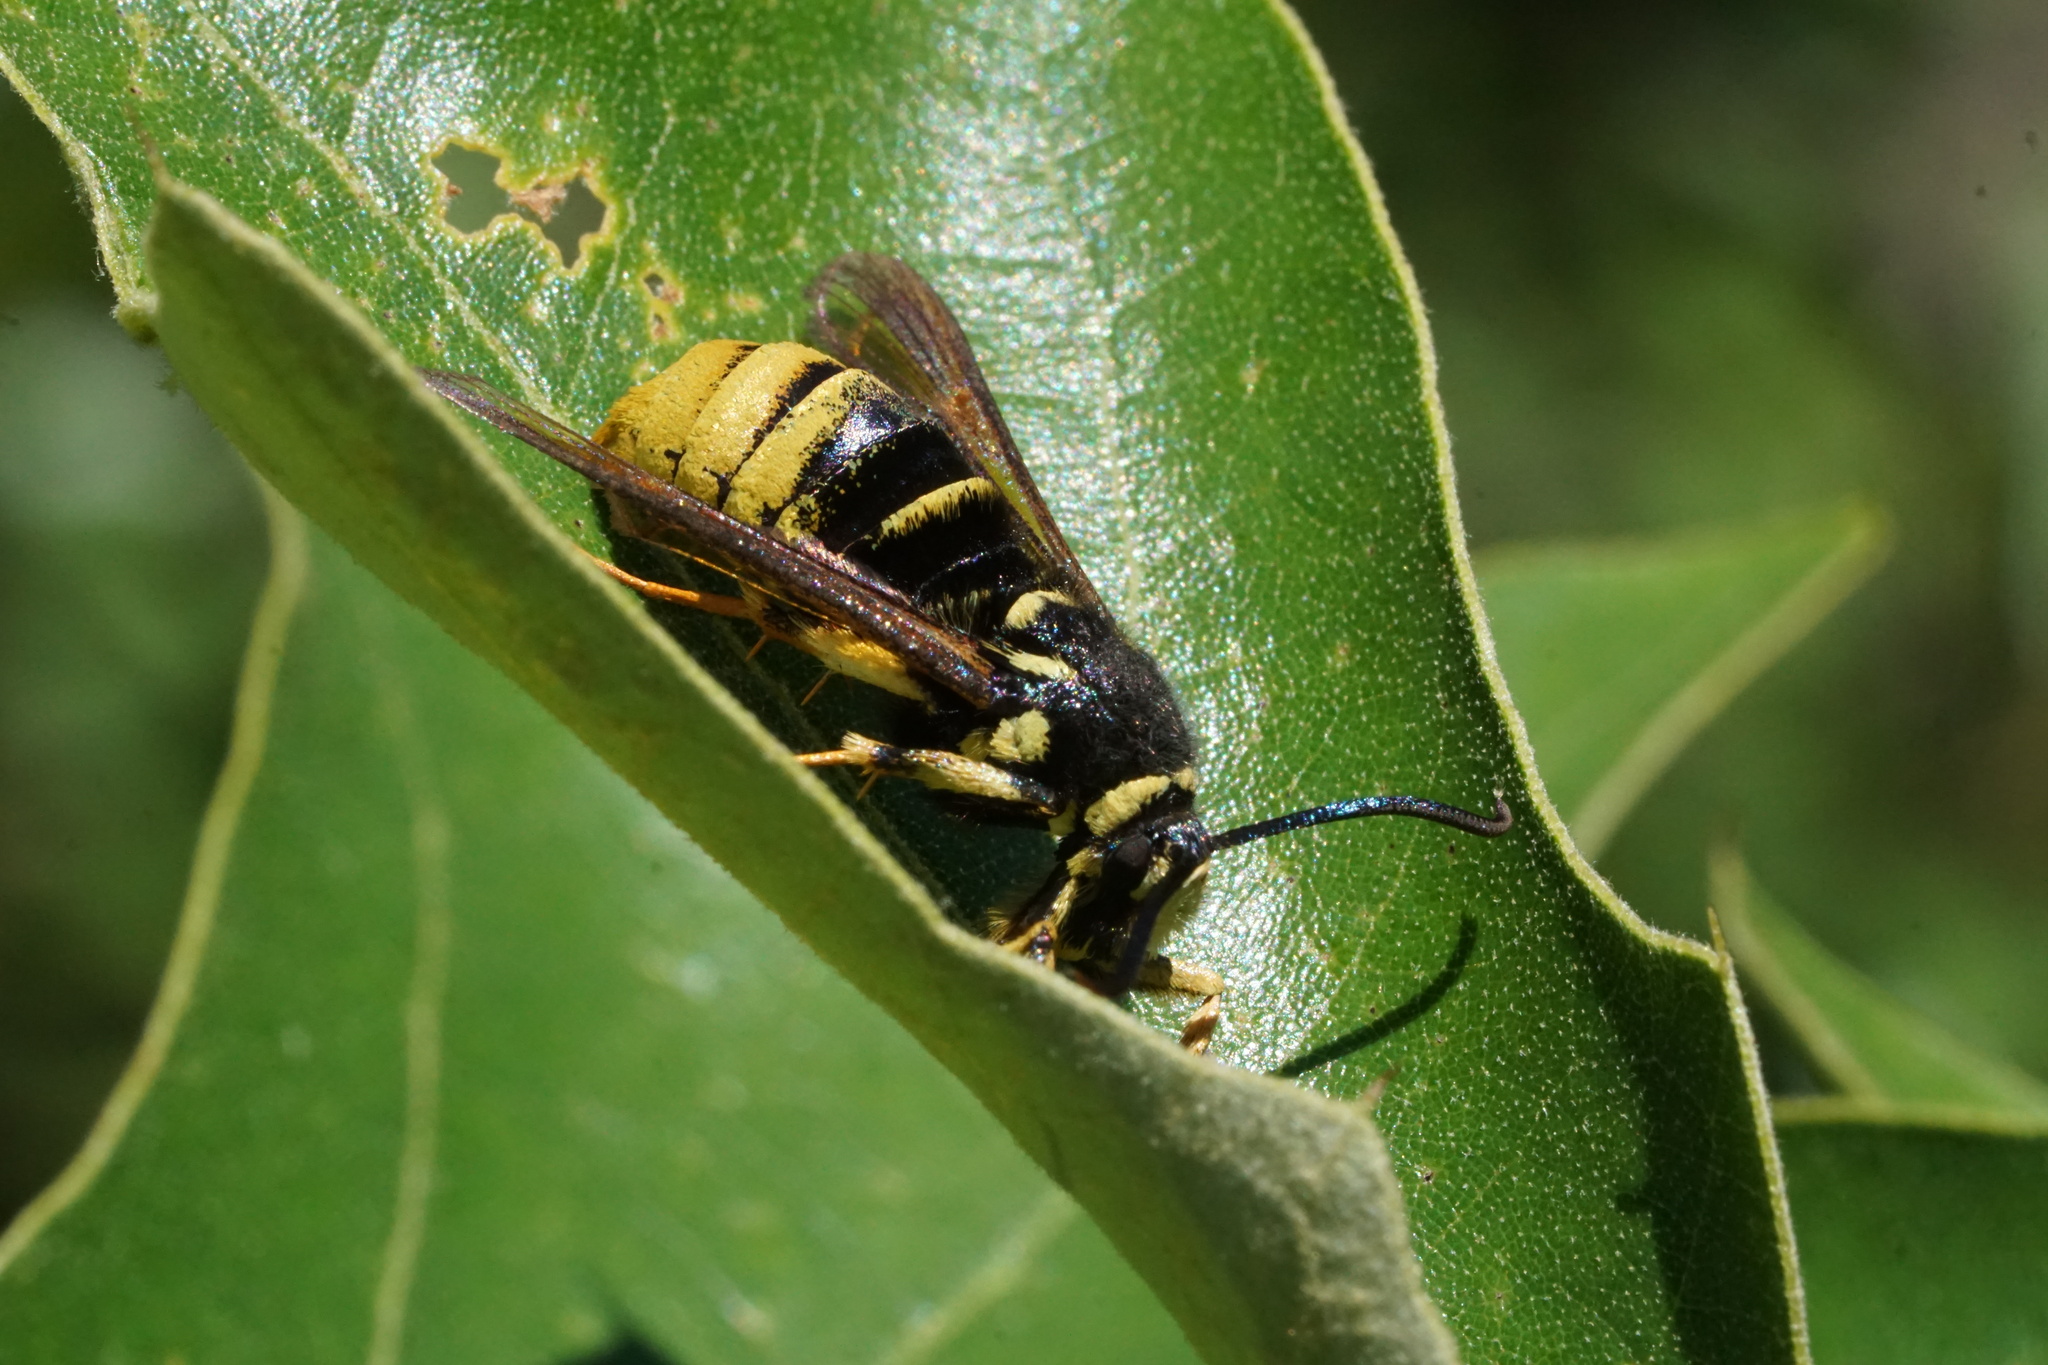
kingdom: Animalia
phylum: Arthropoda
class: Insecta
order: Lepidoptera
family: Sesiidae
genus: Paranthrene
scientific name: Paranthrene simulans
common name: Hornet clearwing moth
